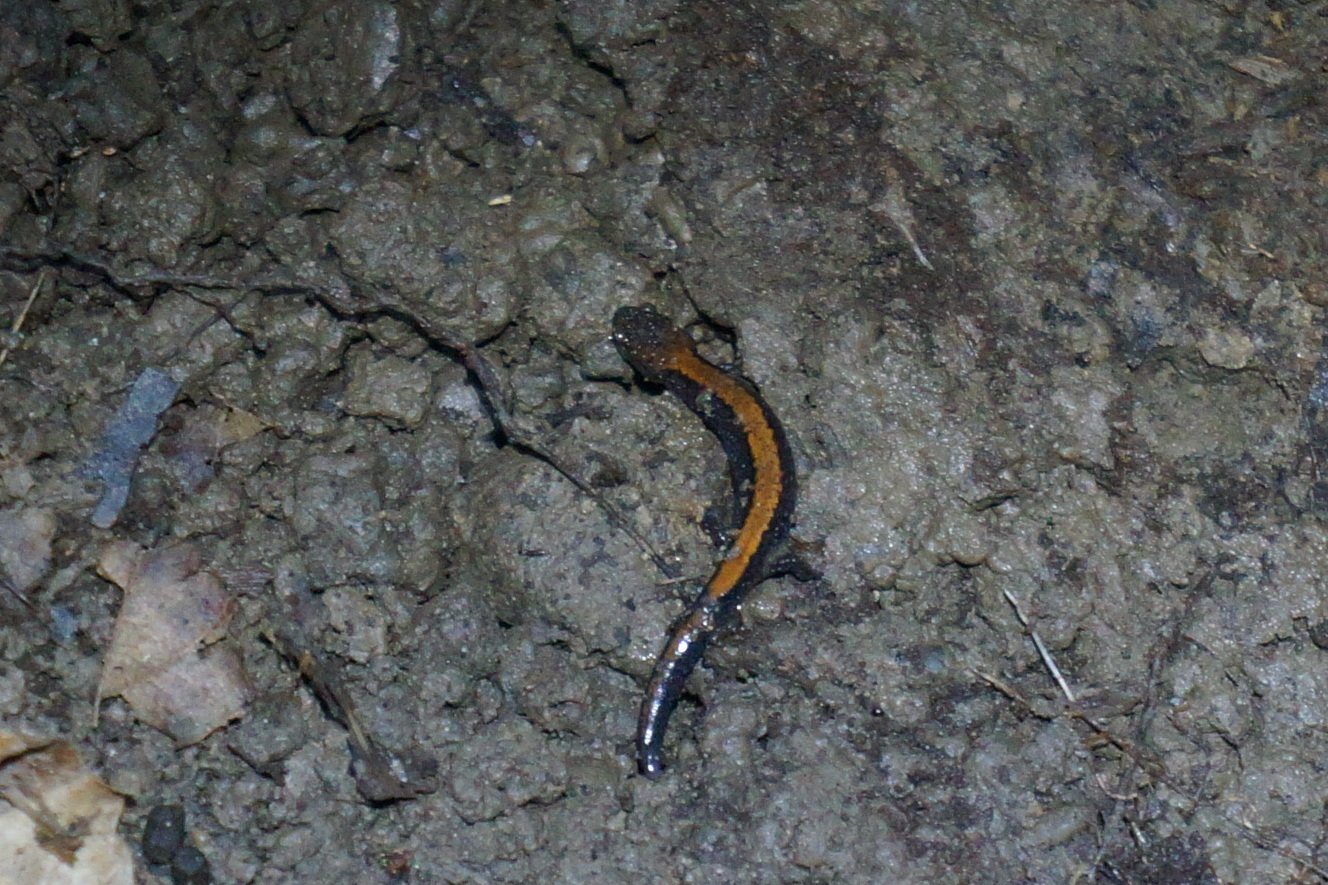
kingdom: Animalia
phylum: Chordata
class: Amphibia
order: Caudata
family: Plethodontidae
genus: Plethodon
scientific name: Plethodon cinereus
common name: Redback salamander
